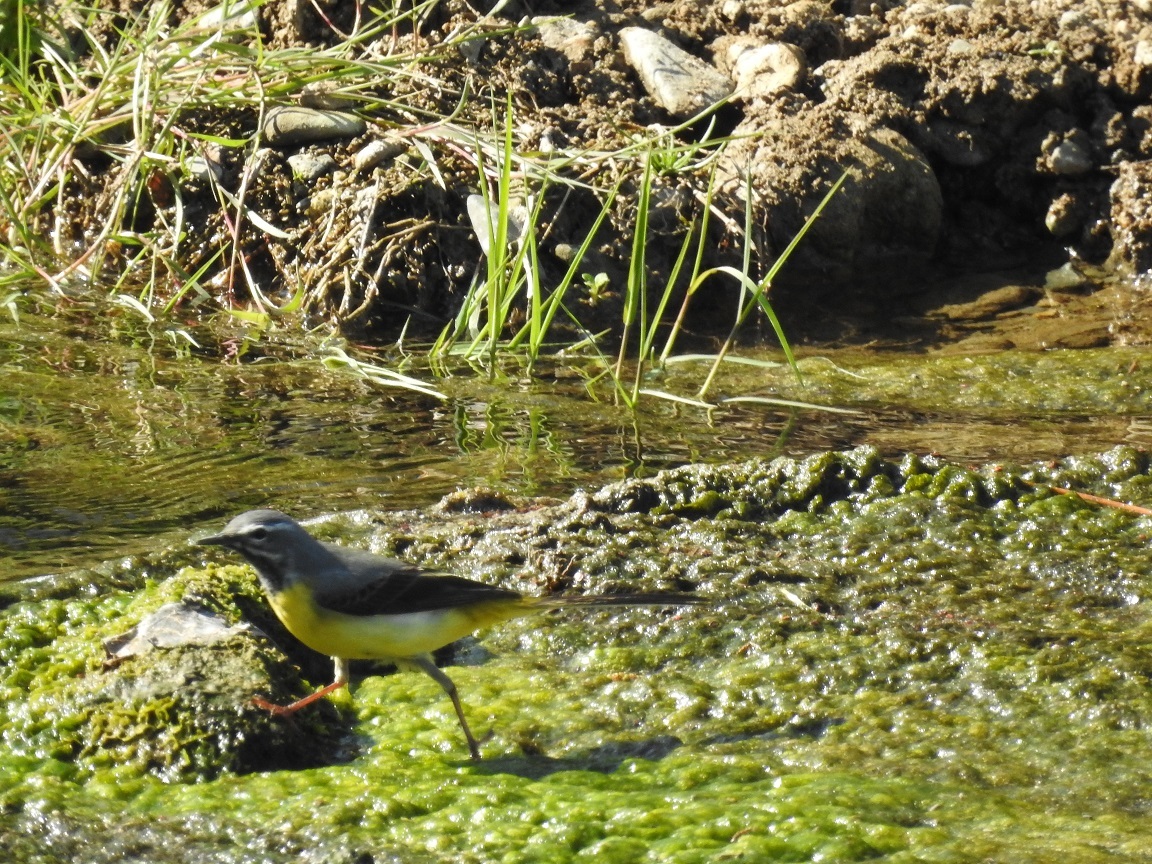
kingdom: Animalia
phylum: Chordata
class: Aves
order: Passeriformes
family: Motacillidae
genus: Motacilla
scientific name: Motacilla cinerea
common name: Grey wagtail
